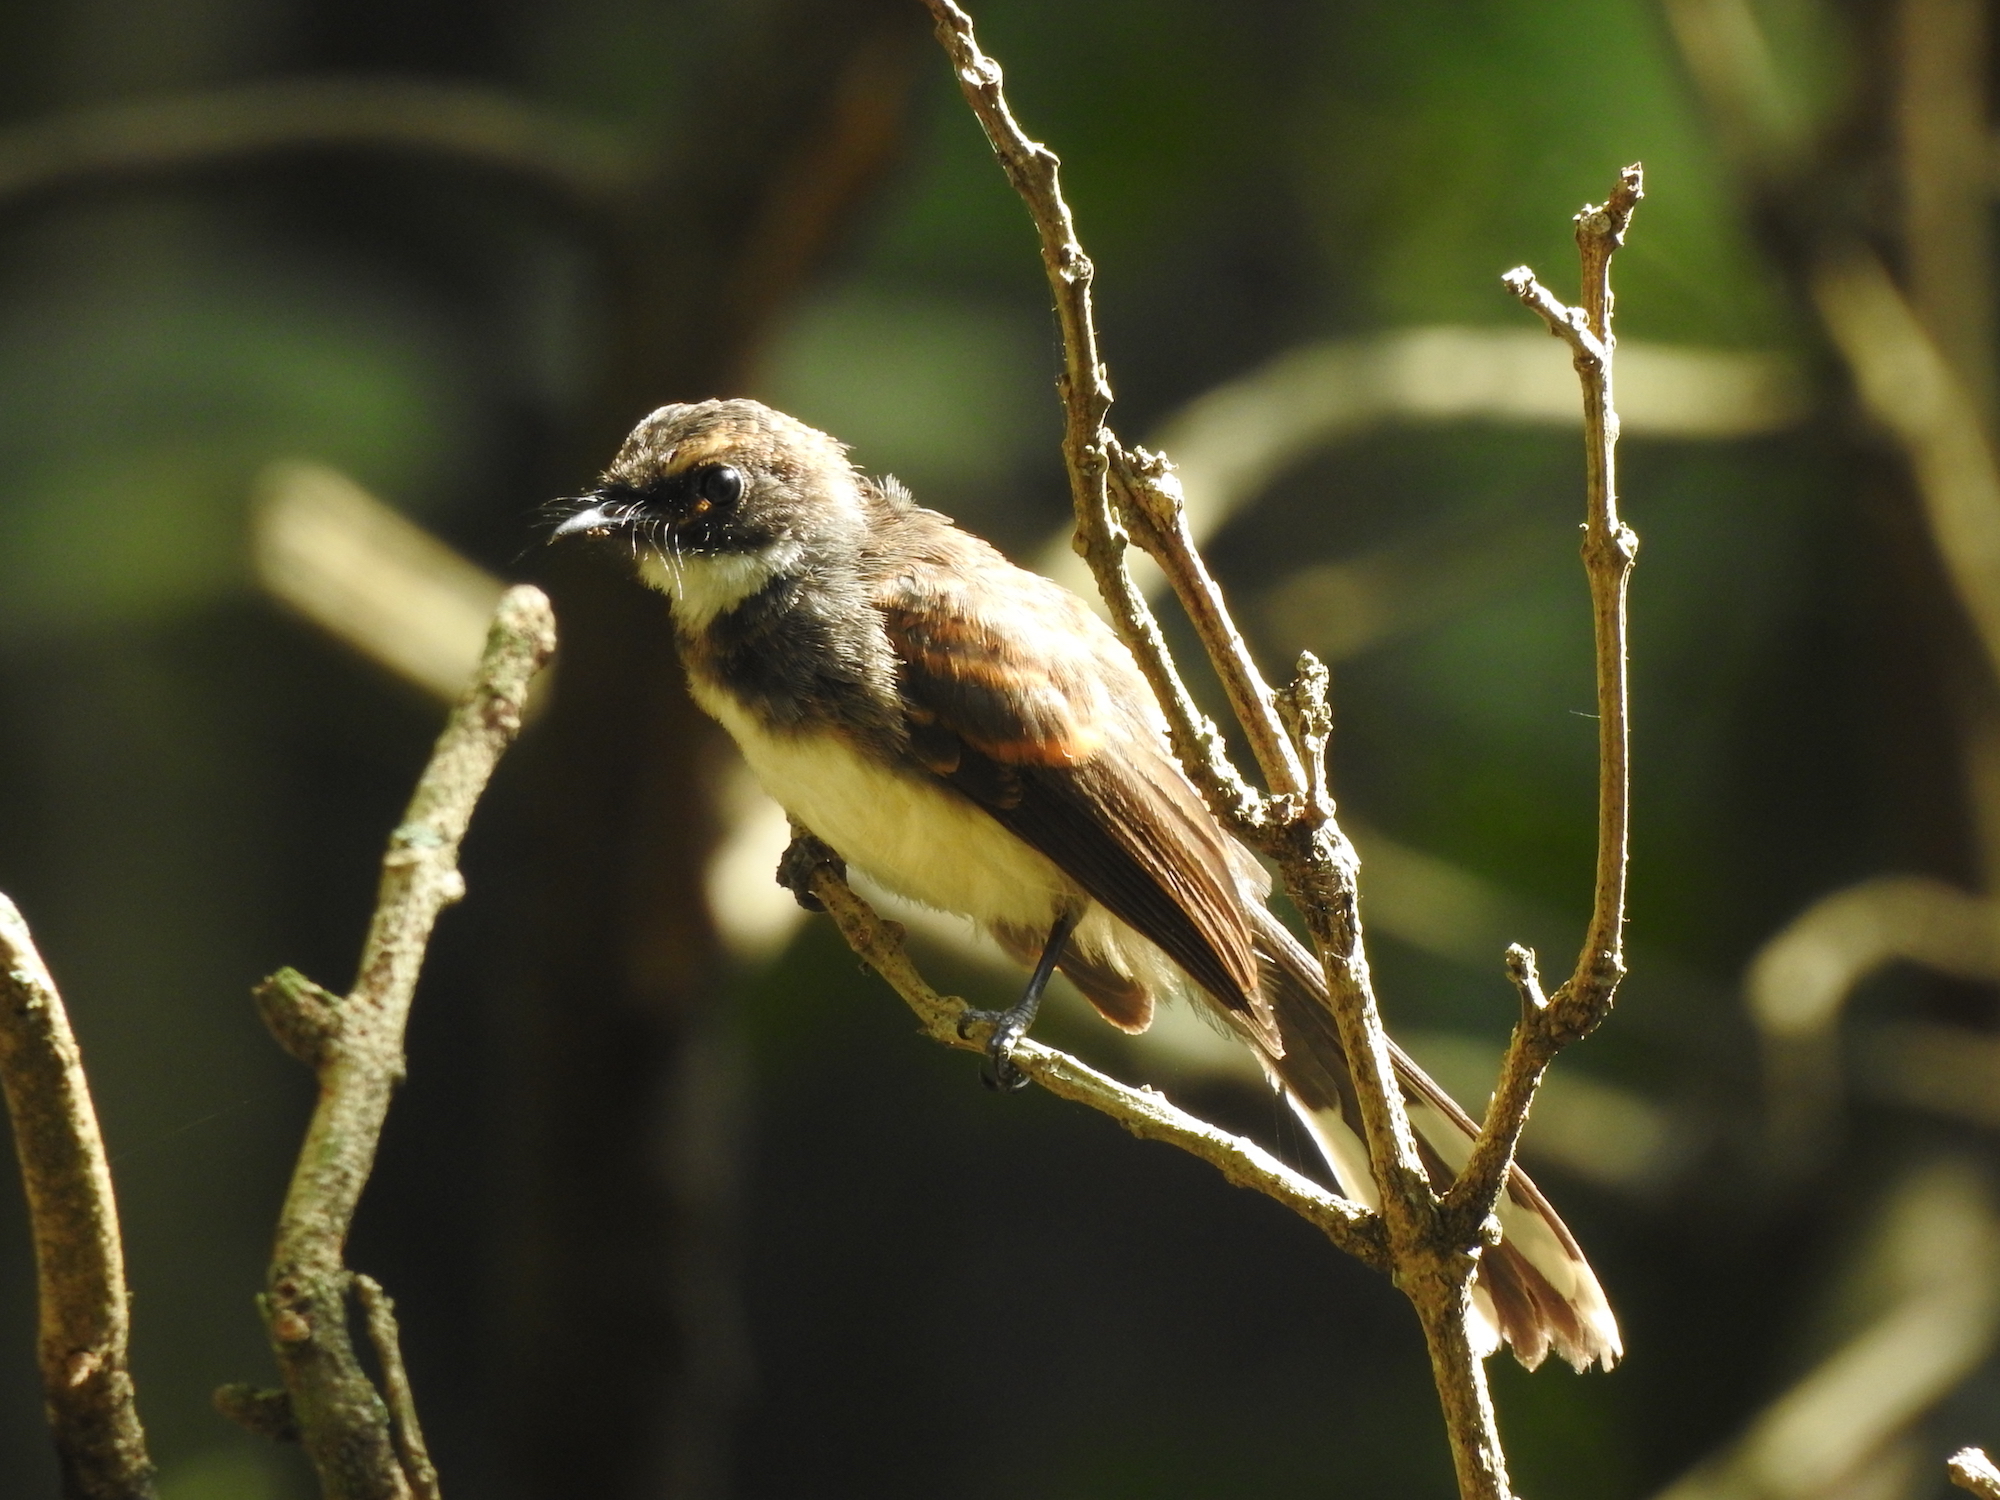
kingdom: Animalia
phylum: Chordata
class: Aves
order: Passeriformes
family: Rhipiduridae
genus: Rhipidura
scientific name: Rhipidura javanica
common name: Pied fantail
